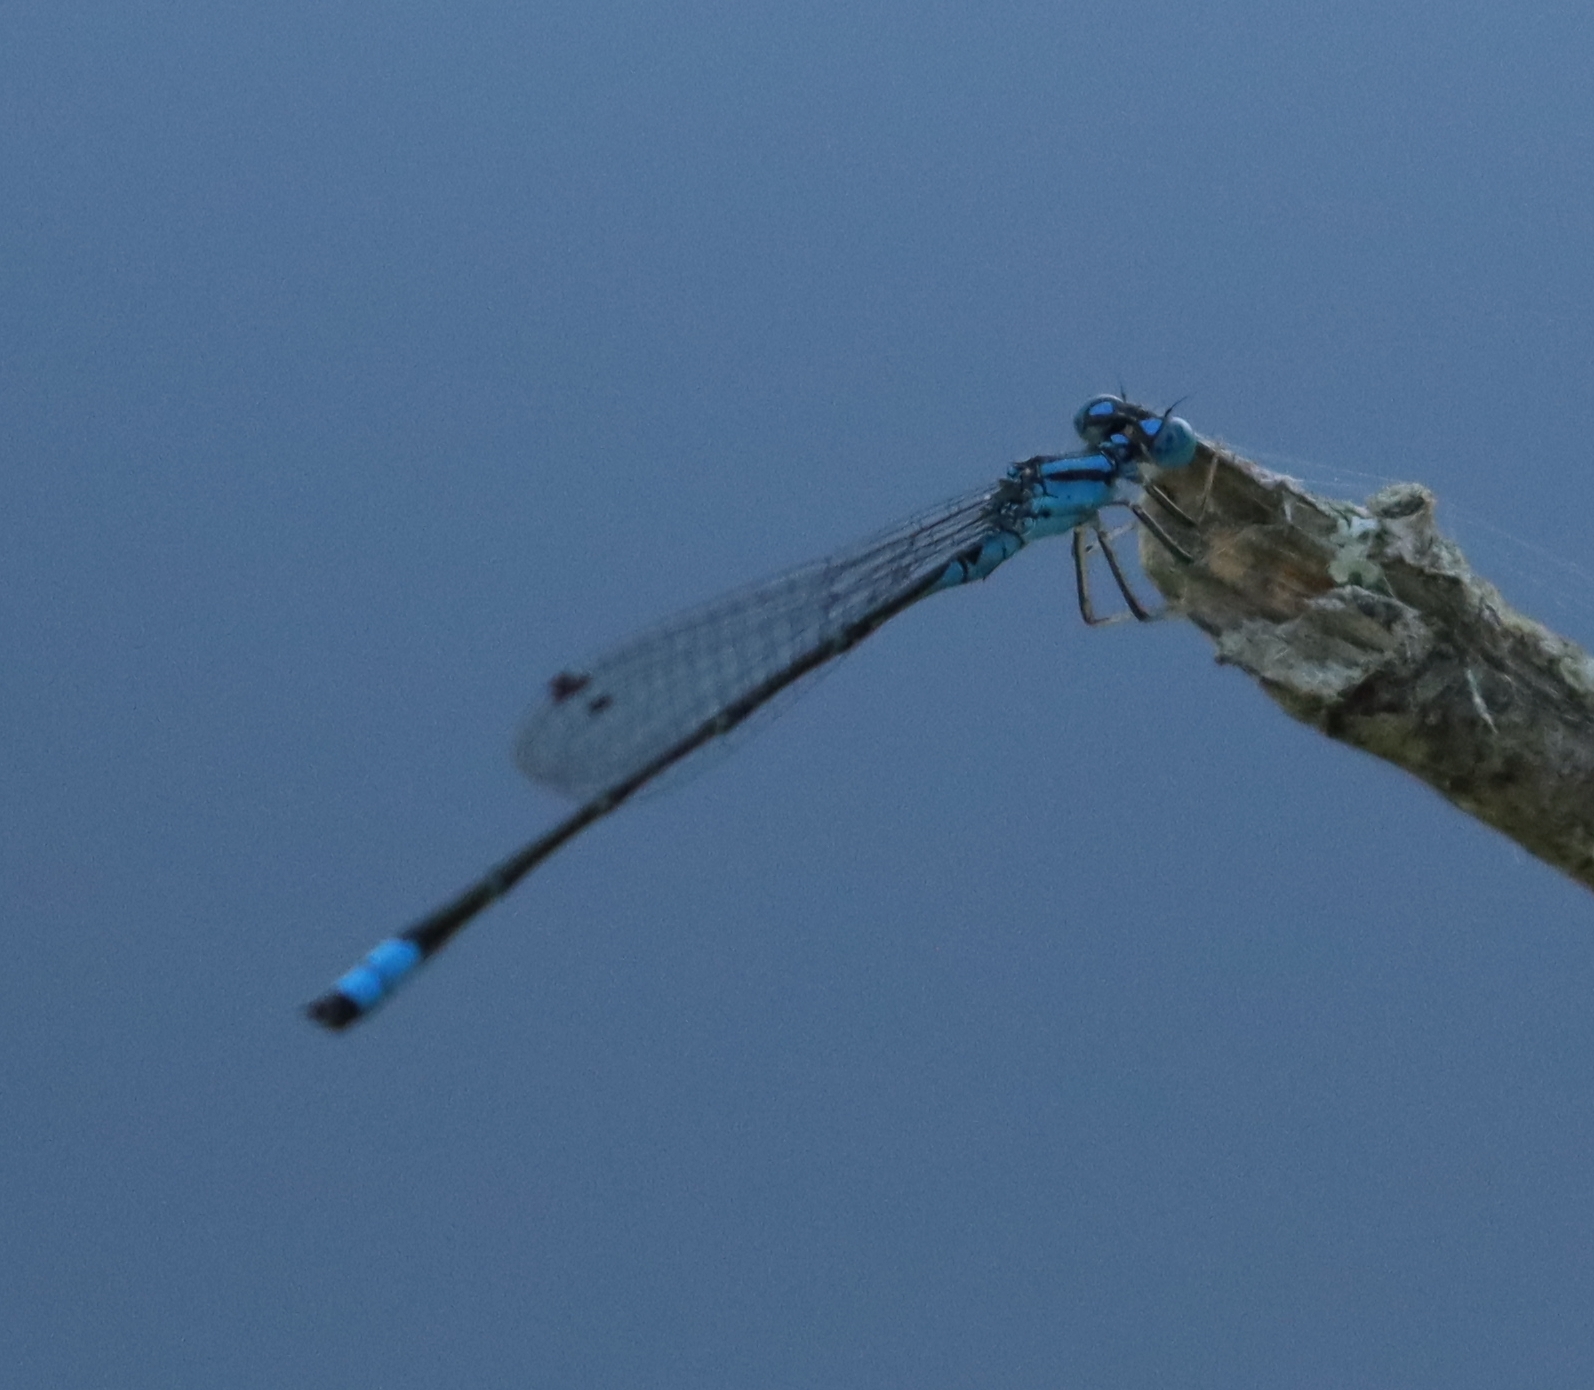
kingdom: Animalia
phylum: Arthropoda
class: Insecta
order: Odonata
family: Coenagrionidae
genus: Enallagma
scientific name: Enallagma traviatum
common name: Slender bluet
